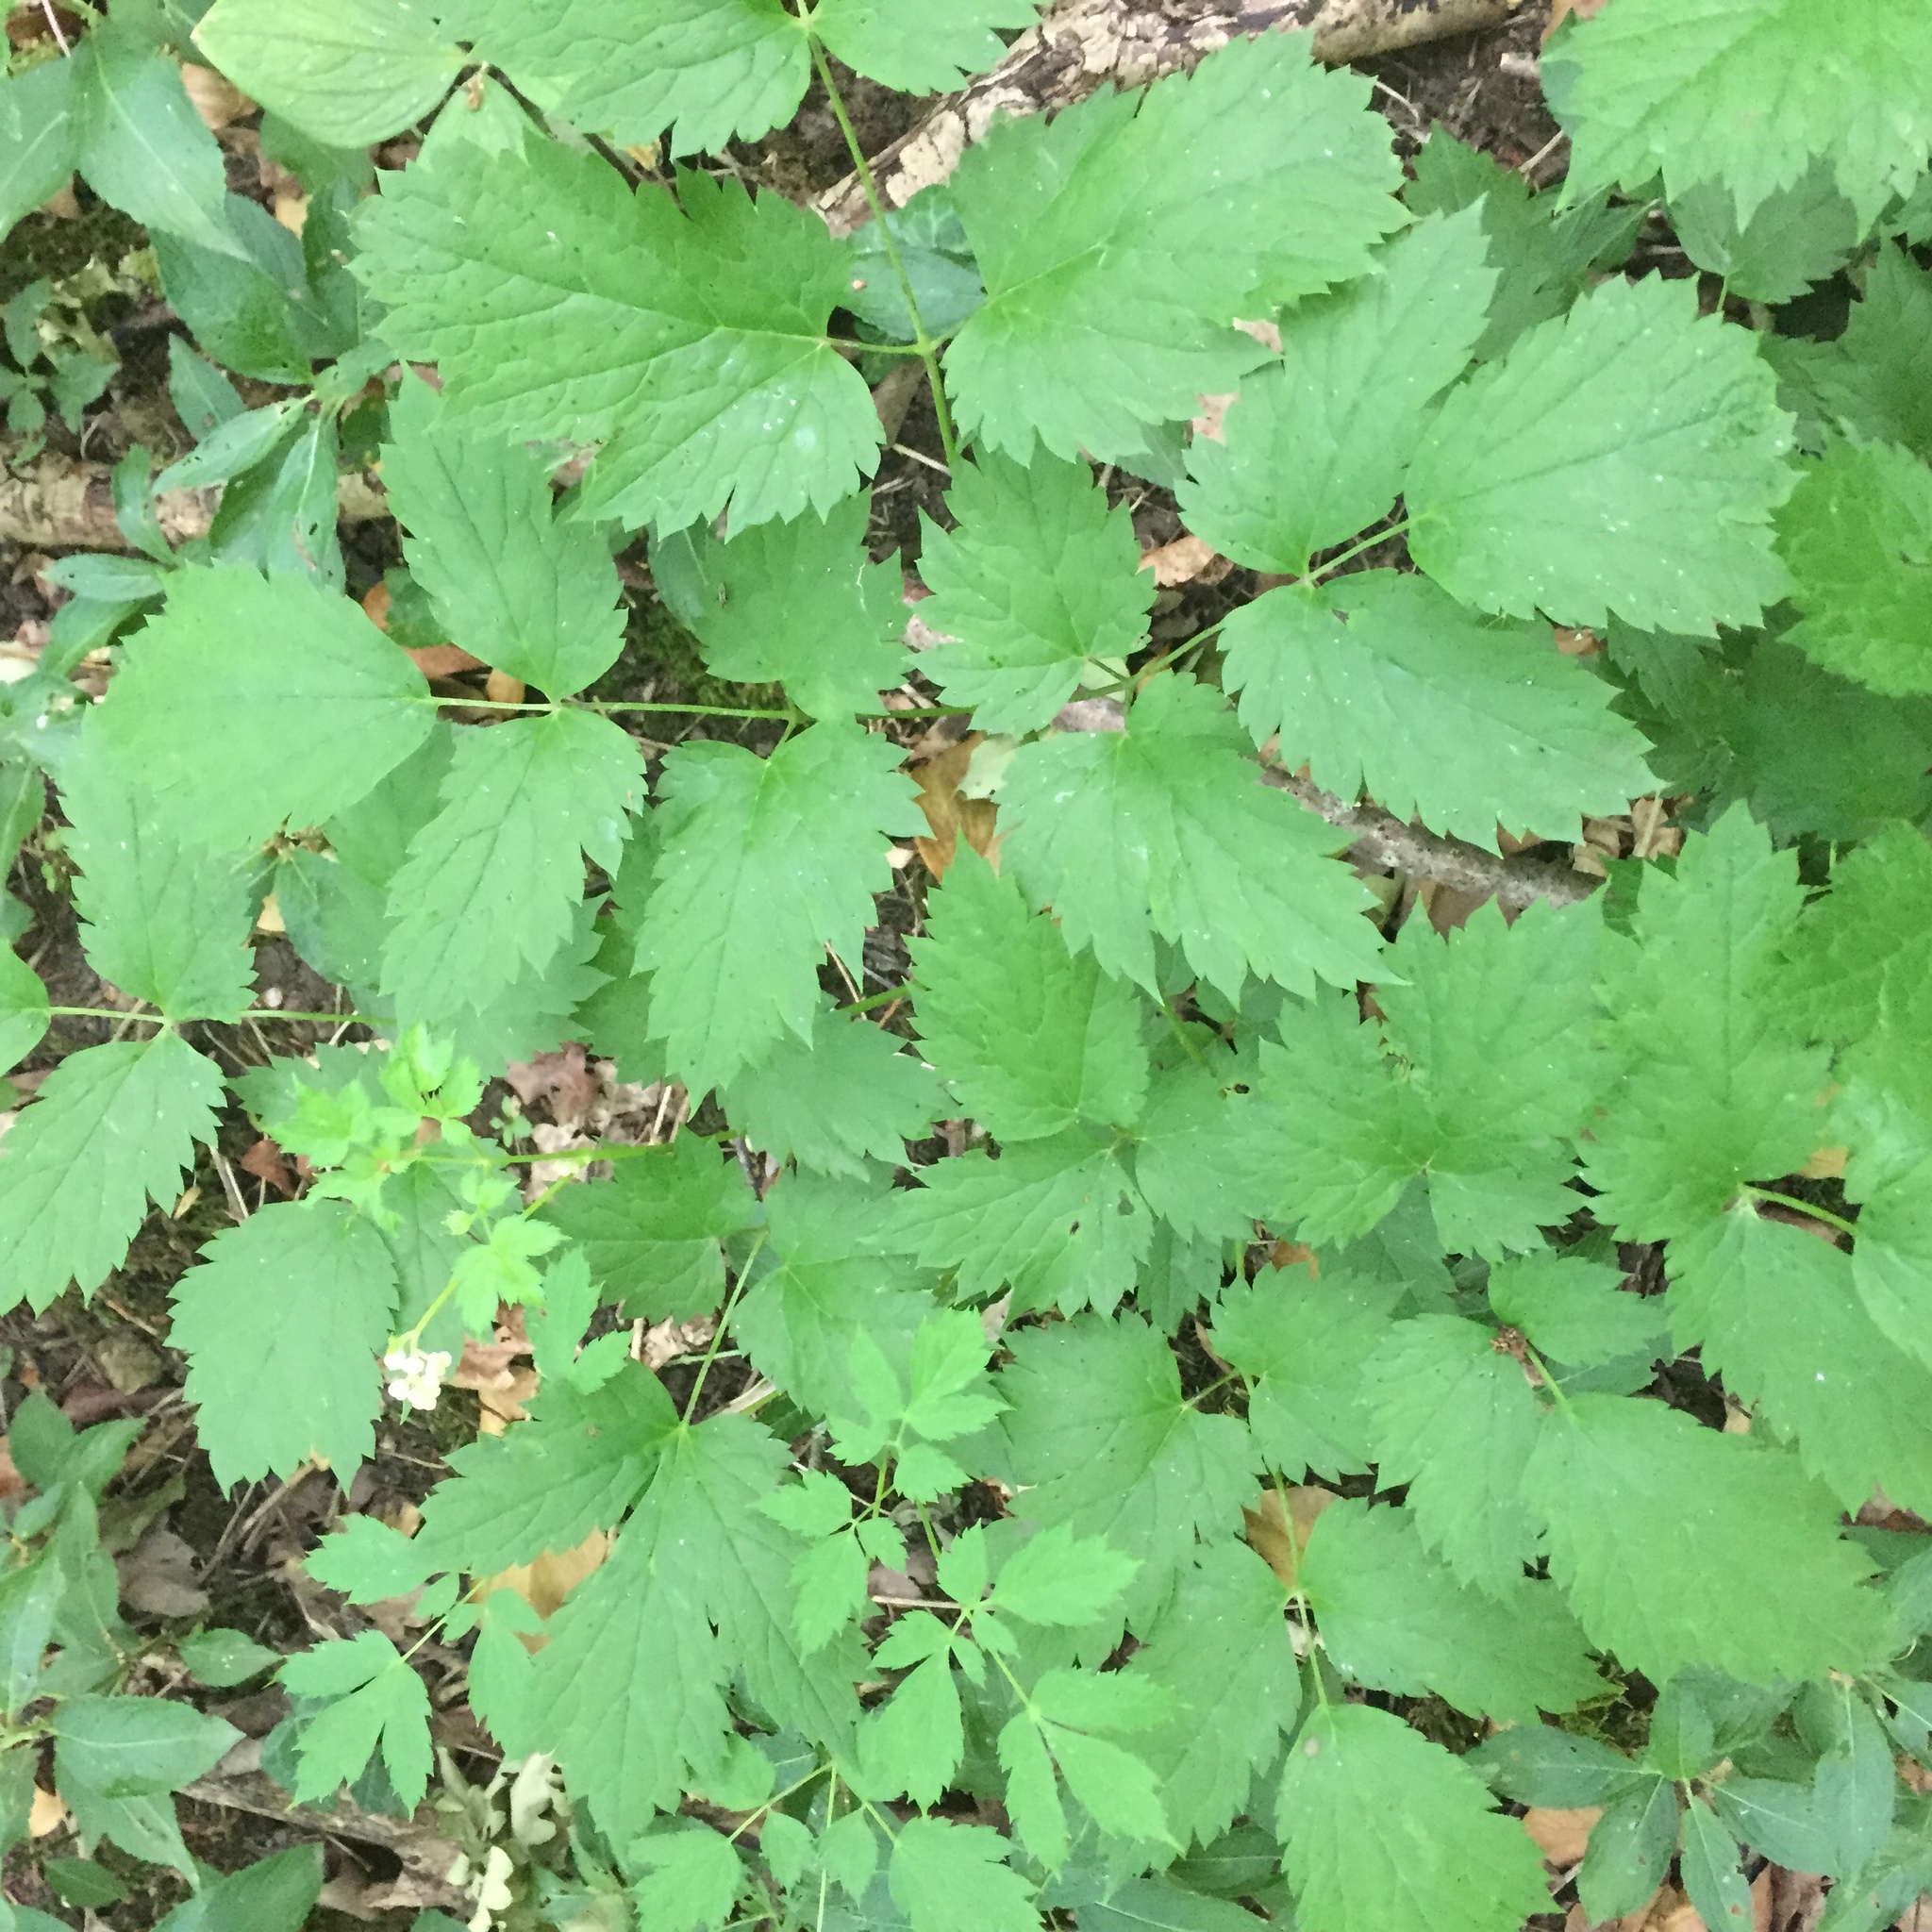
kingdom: Plantae
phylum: Tracheophyta
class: Magnoliopsida
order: Ranunculales
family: Ranunculaceae
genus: Actaea
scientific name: Actaea spicata
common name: Baneberry
